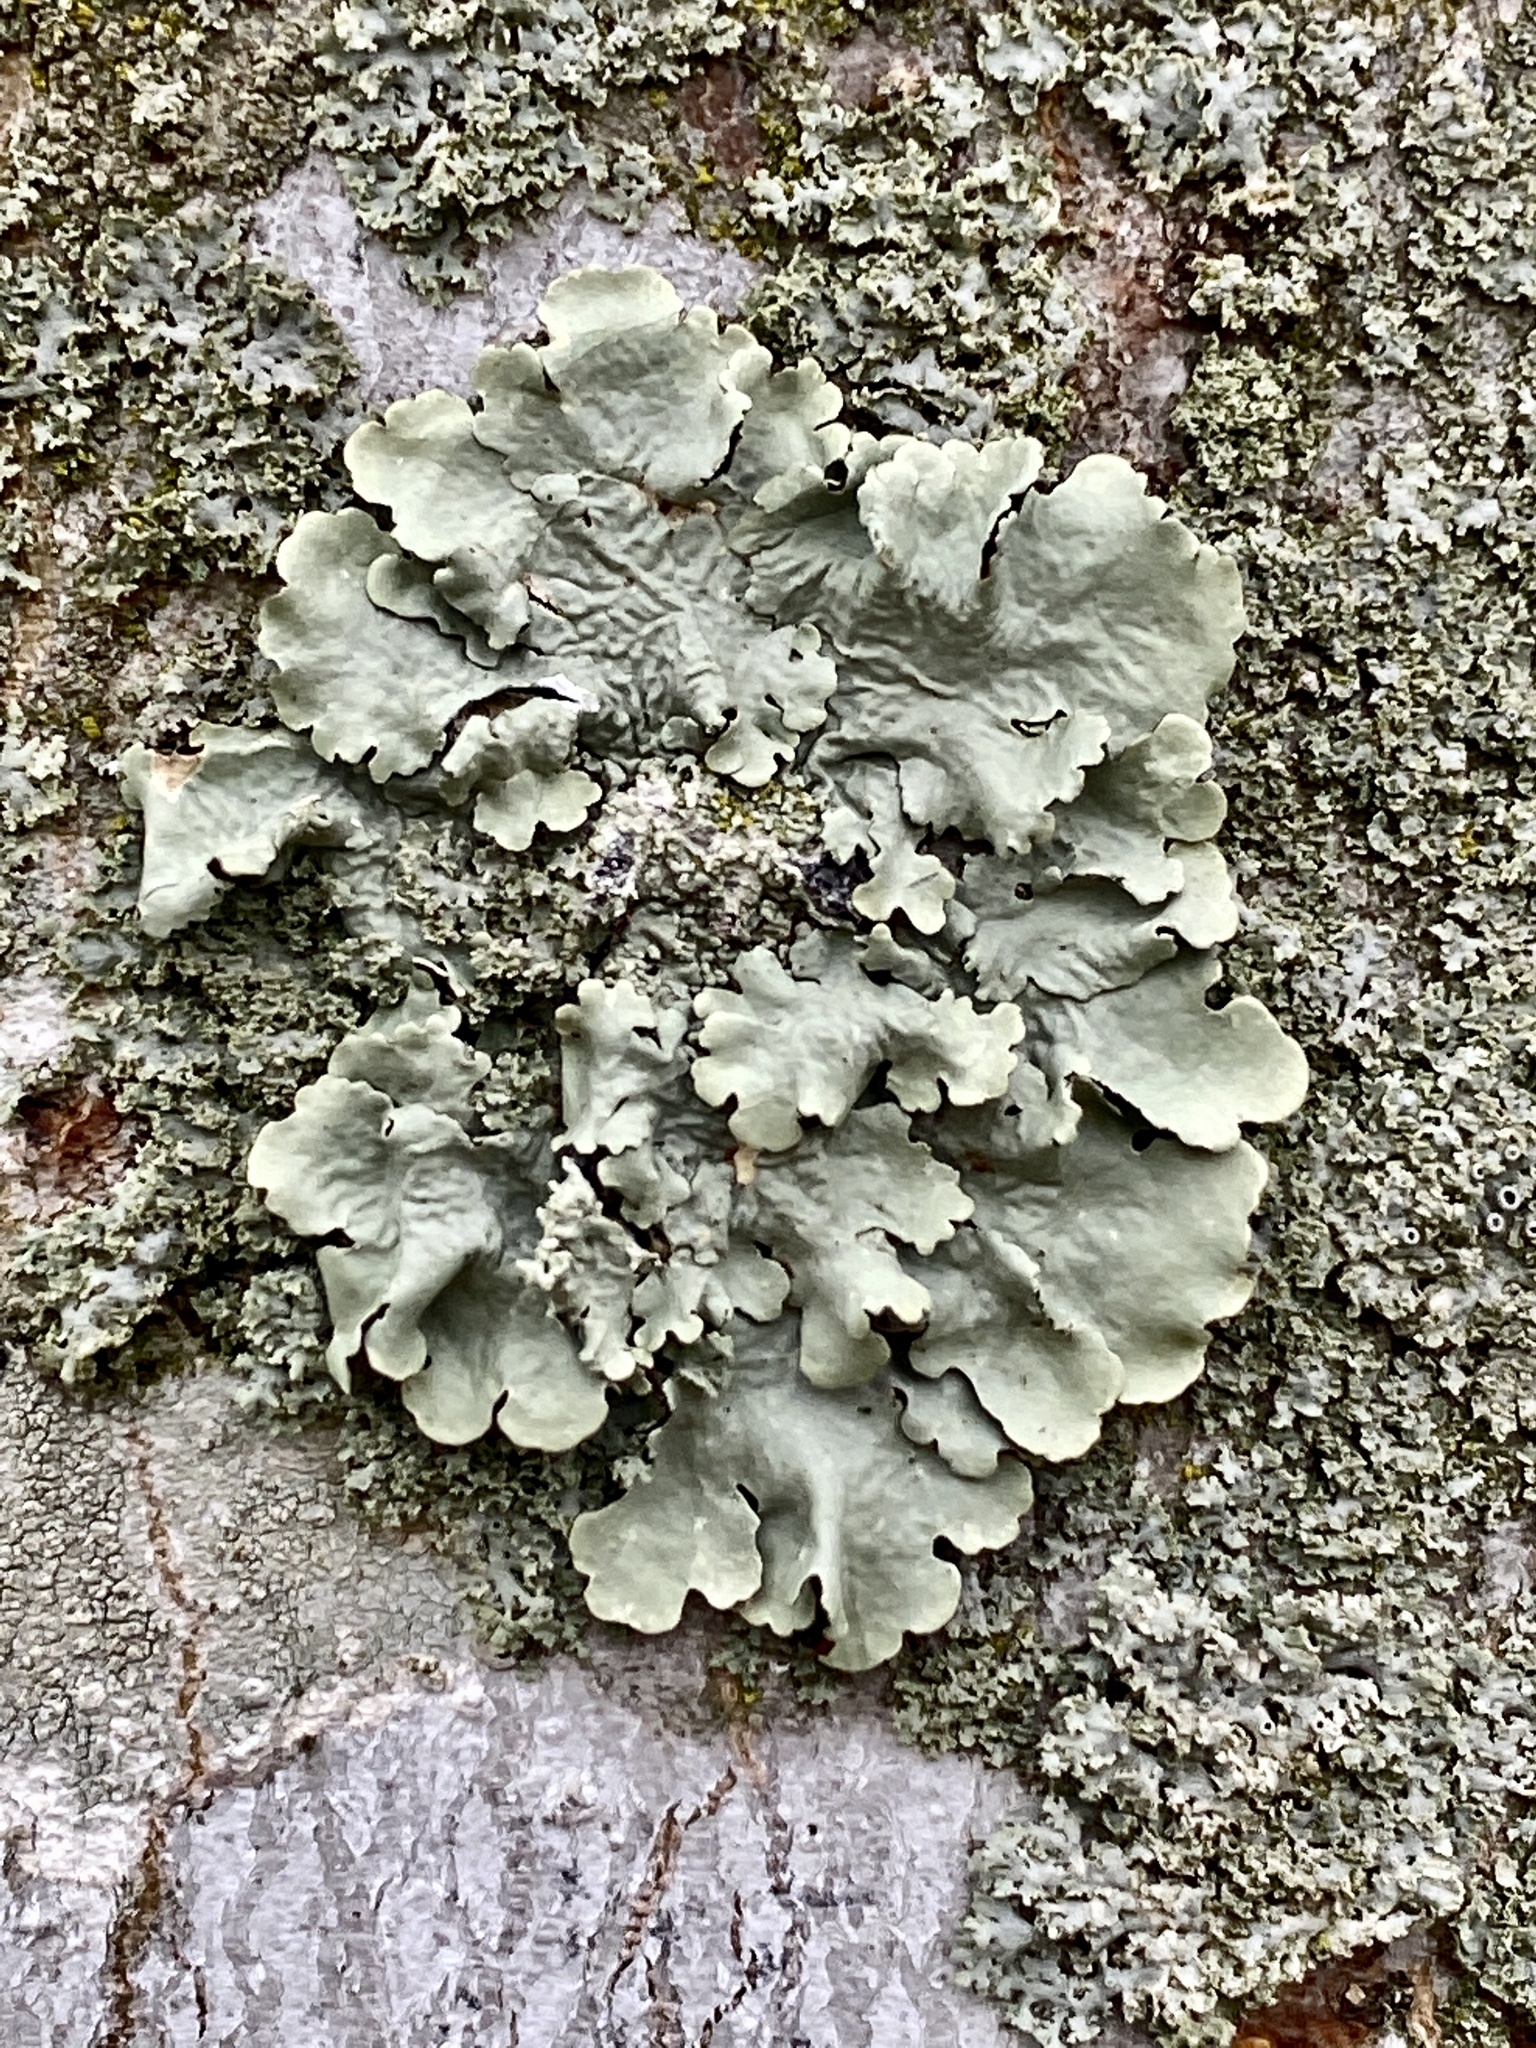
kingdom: Fungi
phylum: Ascomycota
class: Lecanoromycetes
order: Lecanorales
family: Parmeliaceae
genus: Flavoparmelia
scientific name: Flavoparmelia caperata
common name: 40-mile per hour lichen
